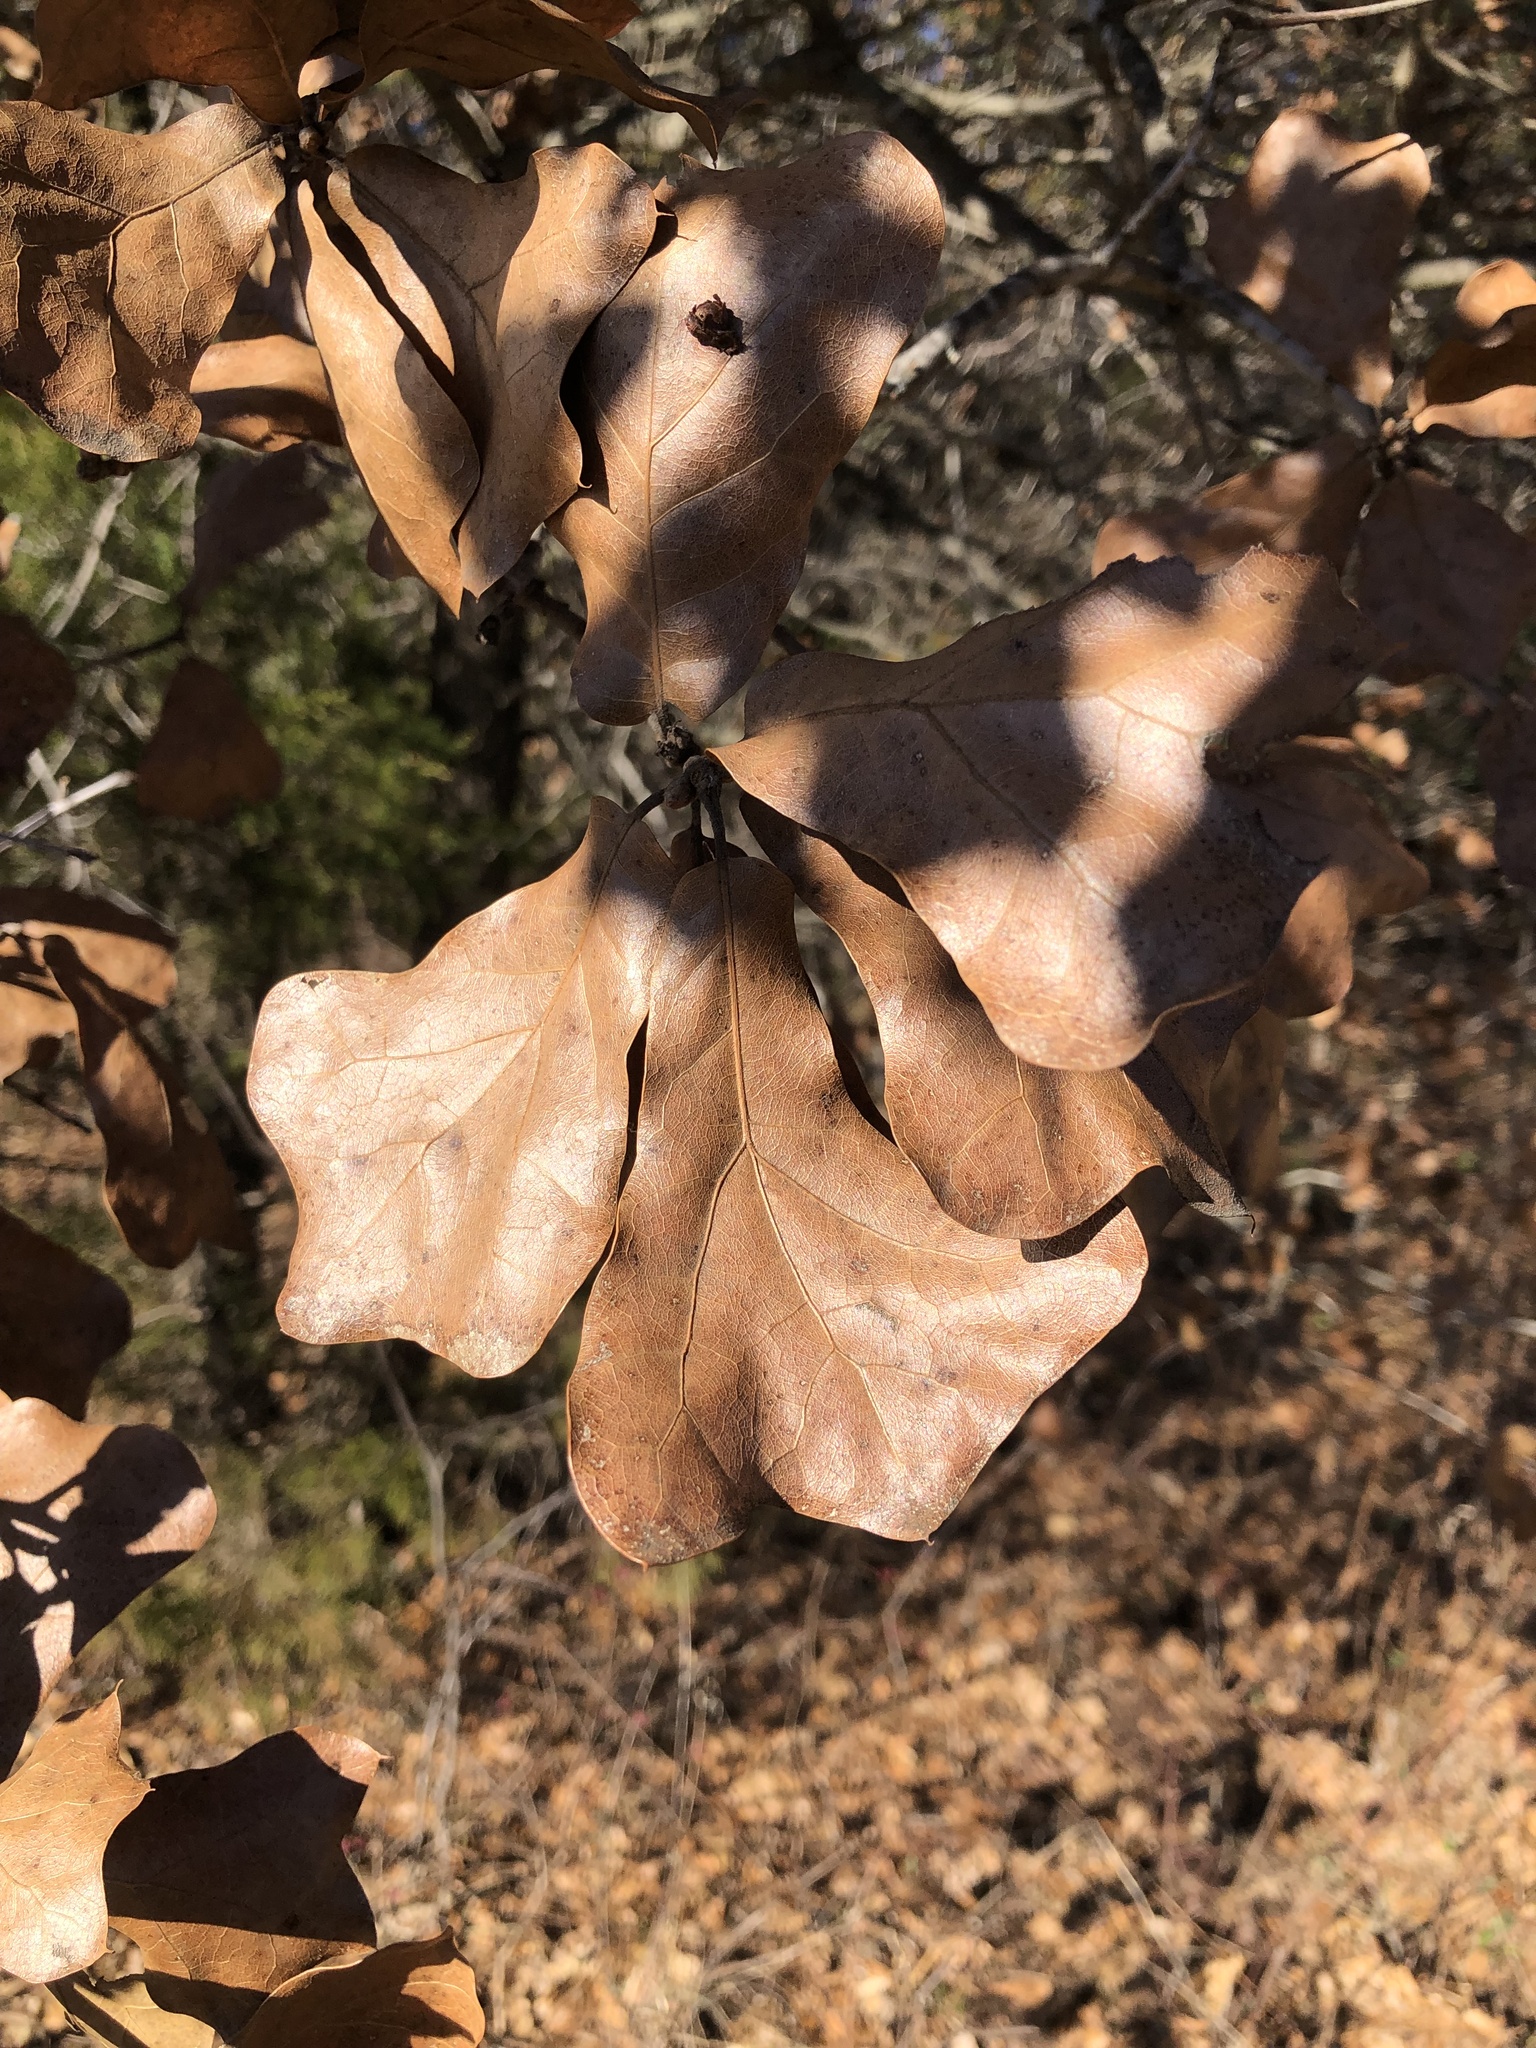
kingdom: Plantae
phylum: Tracheophyta
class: Magnoliopsida
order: Fagales
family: Fagaceae
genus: Quercus
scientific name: Quercus marilandica
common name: Blackjack oak
